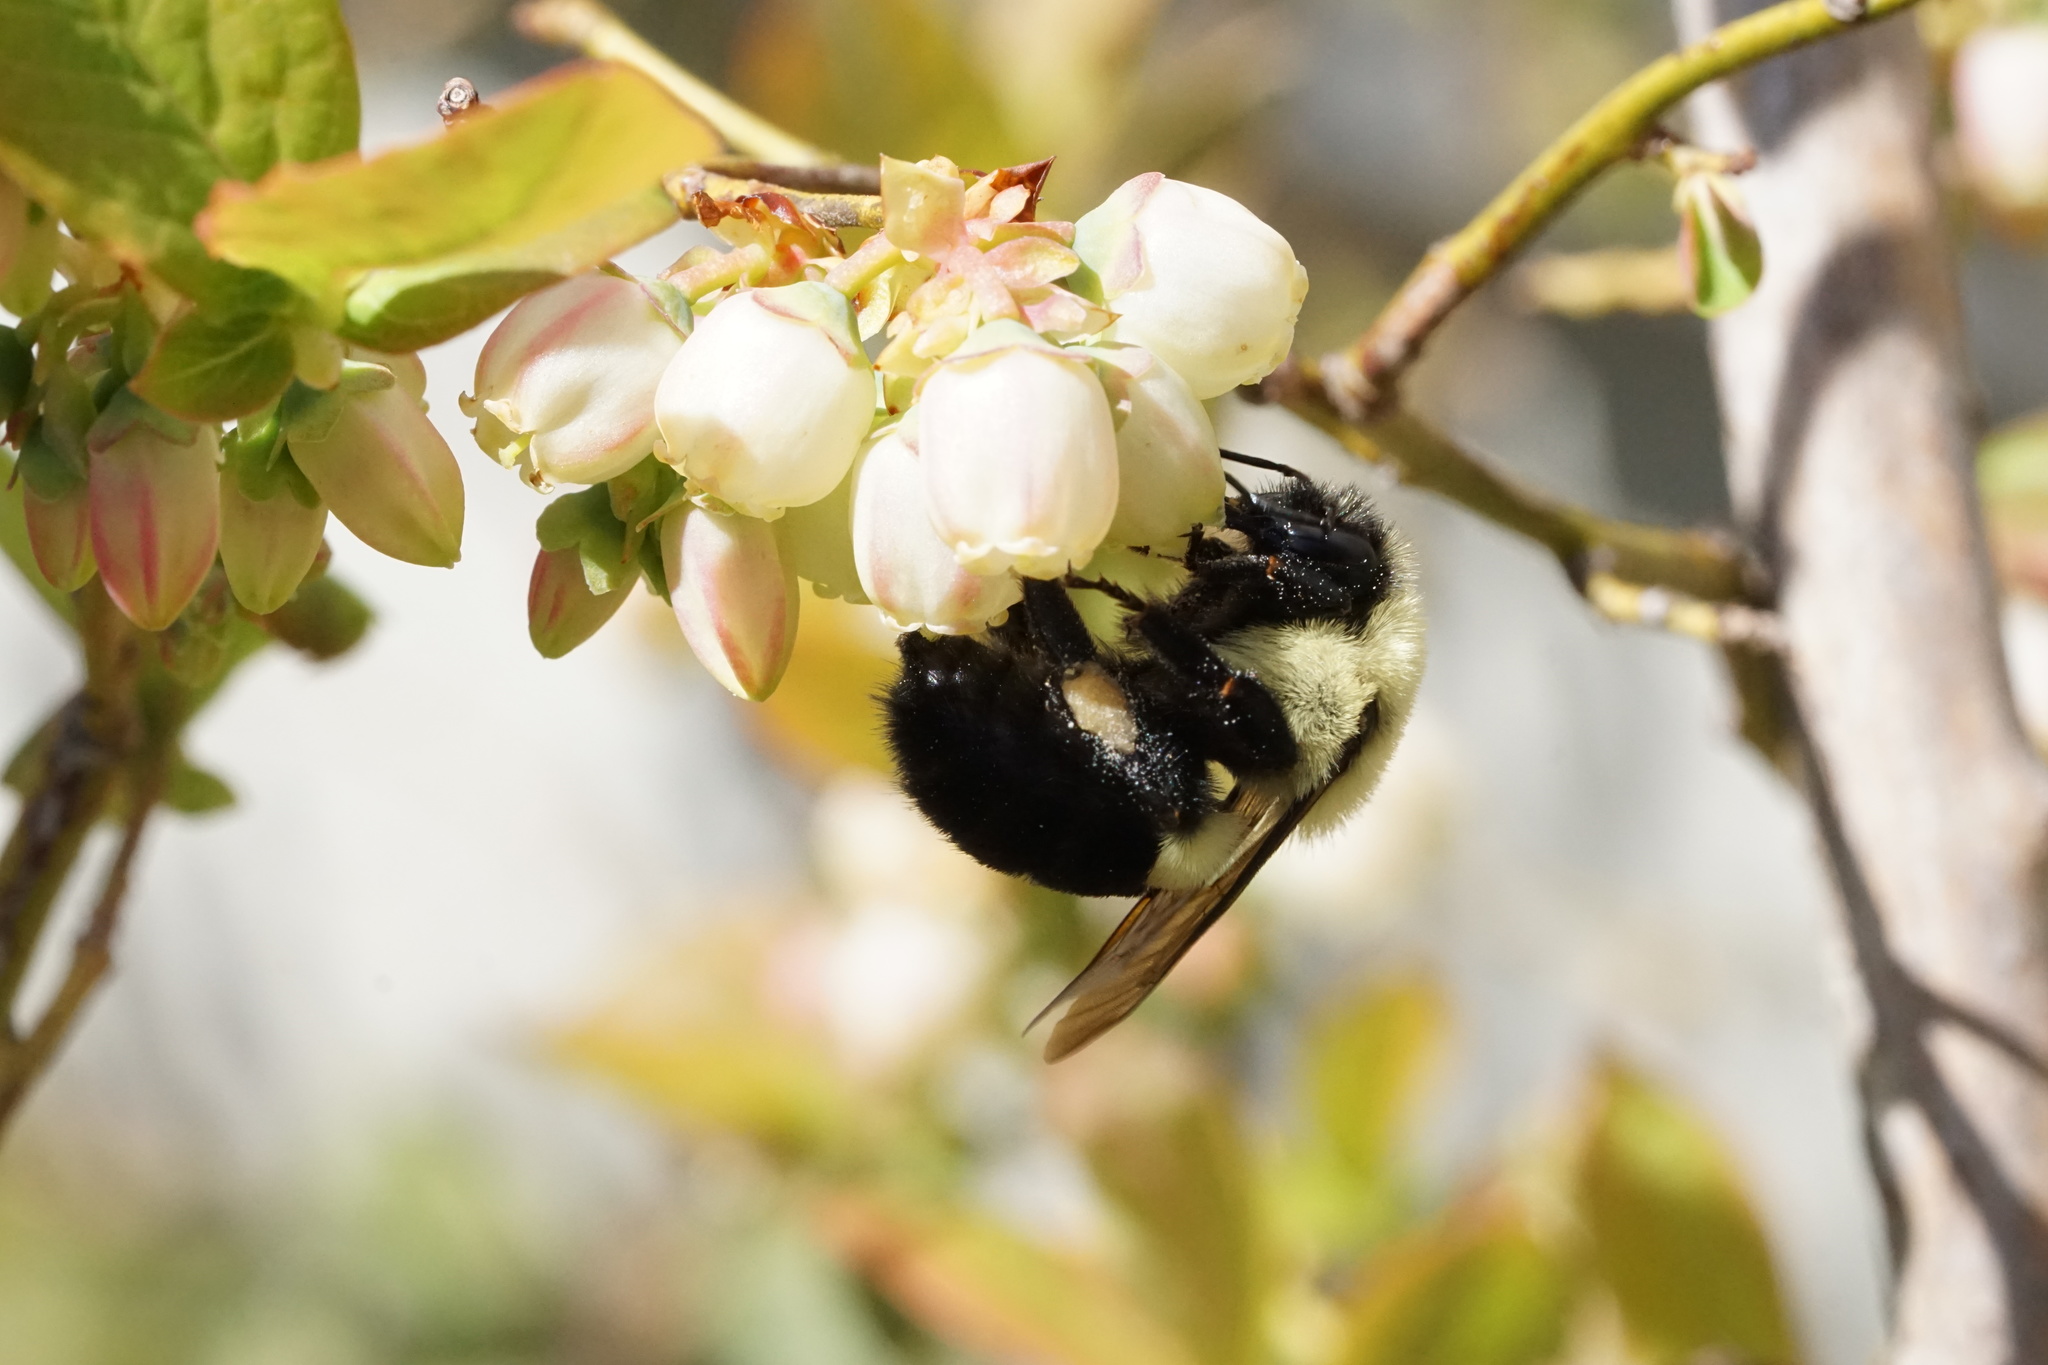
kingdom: Animalia
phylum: Arthropoda
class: Insecta
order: Hymenoptera
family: Apidae
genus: Bombus
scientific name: Bombus impatiens
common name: Common eastern bumble bee
